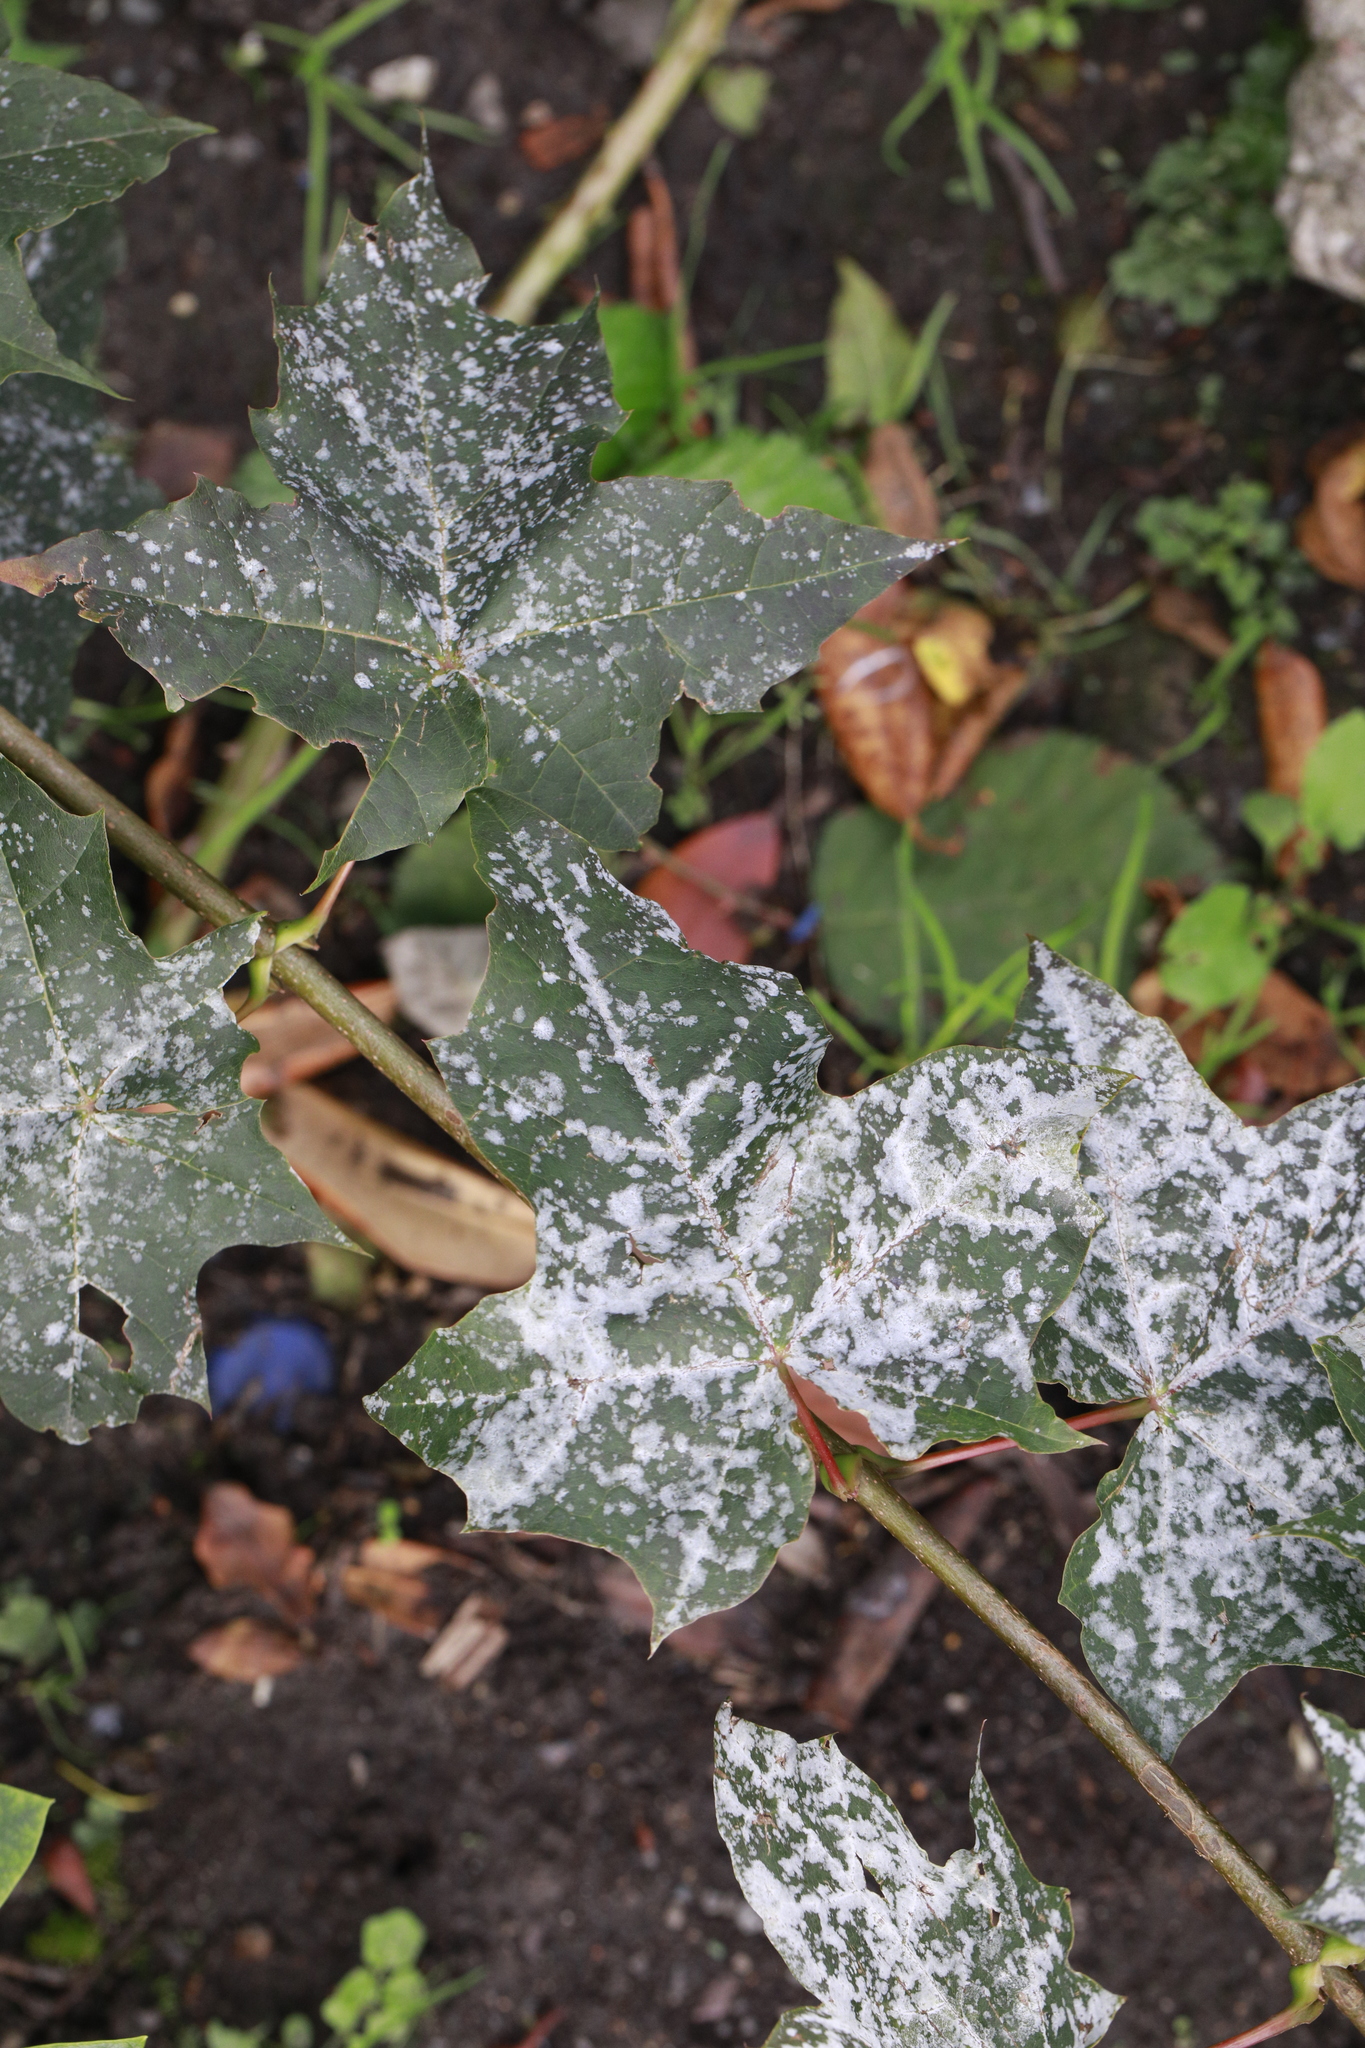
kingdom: Fungi
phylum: Ascomycota
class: Leotiomycetes
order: Helotiales
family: Erysiphaceae
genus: Sawadaea
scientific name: Sawadaea bicornis
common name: Maple mildew
